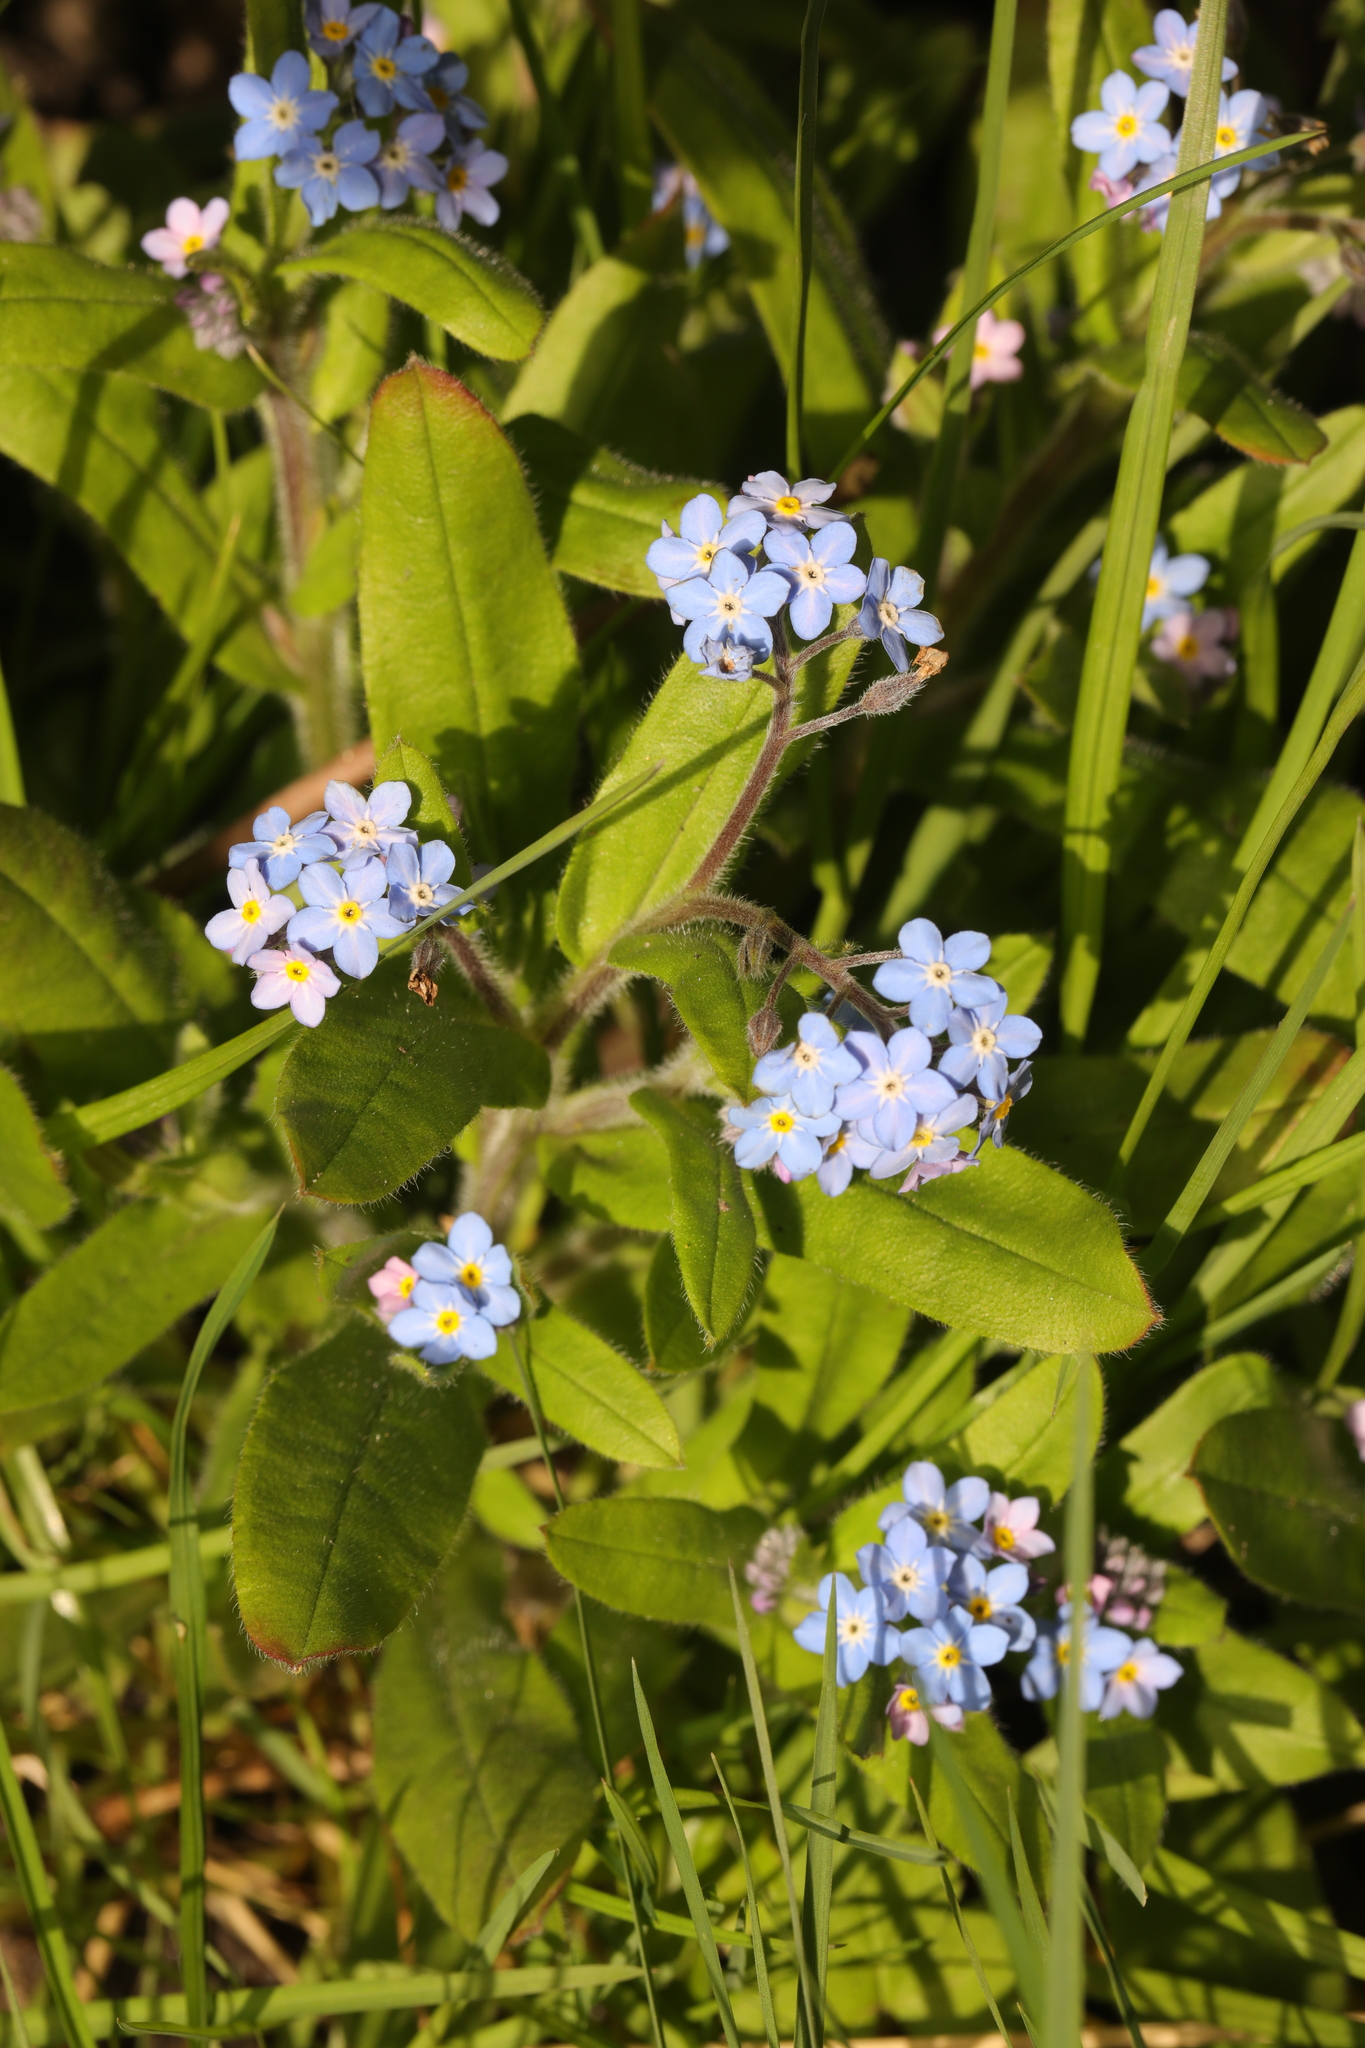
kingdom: Plantae
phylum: Tracheophyta
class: Magnoliopsida
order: Boraginales
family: Boraginaceae
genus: Myosotis
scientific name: Myosotis sylvatica
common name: Wood forget-me-not
